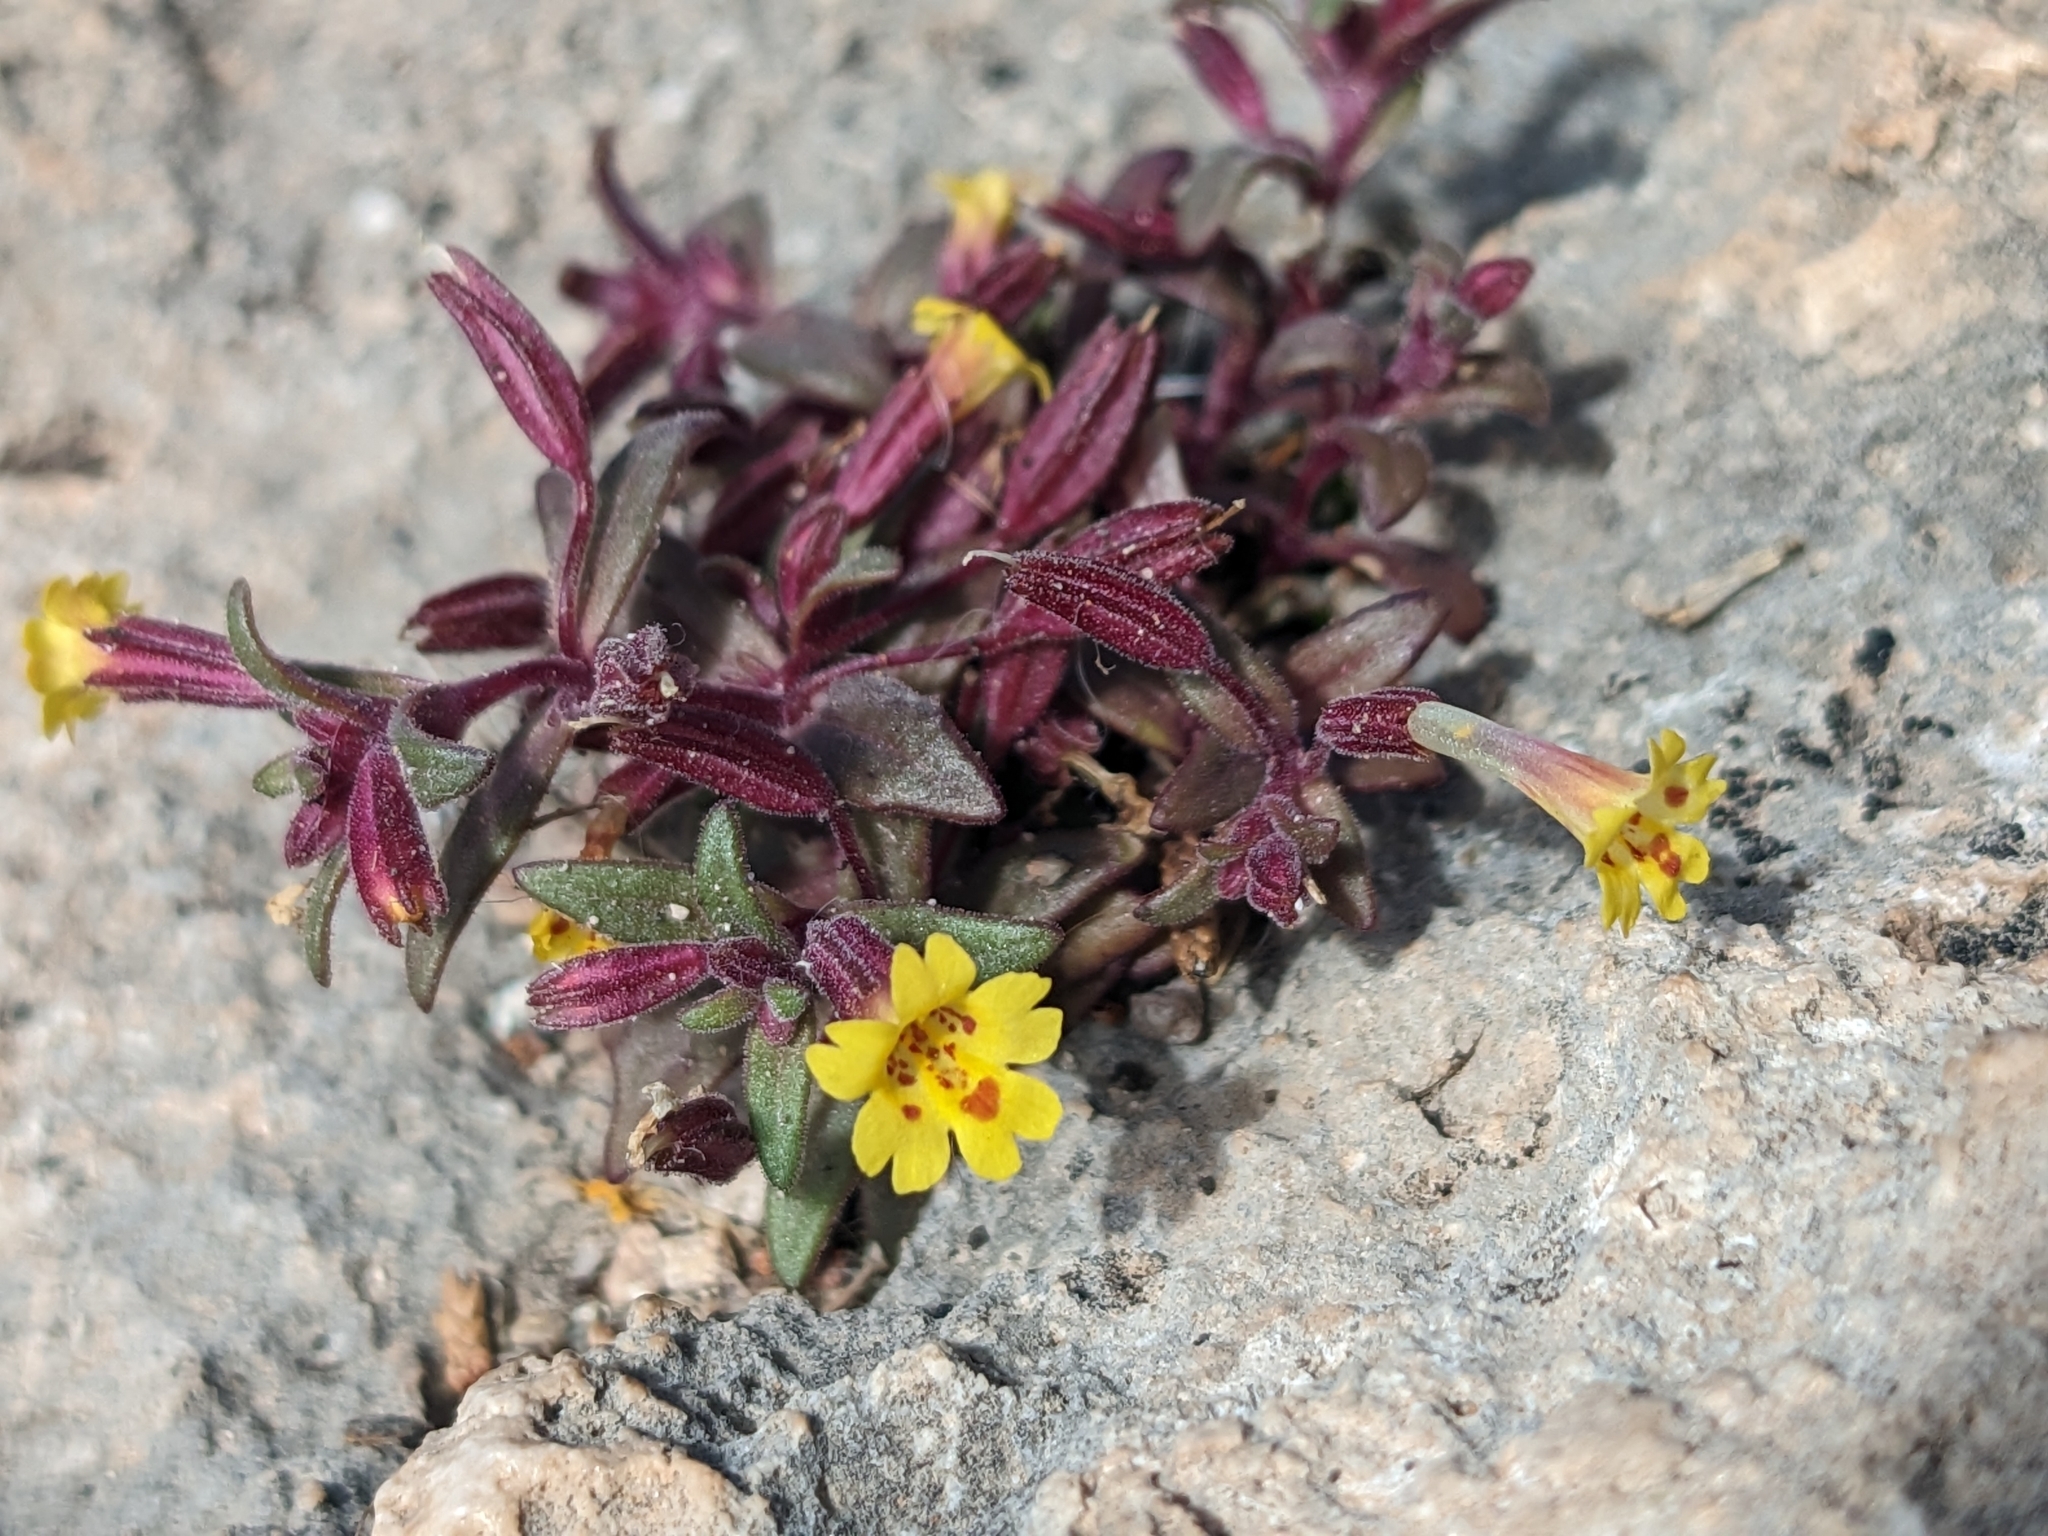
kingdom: Plantae
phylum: Tracheophyta
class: Magnoliopsida
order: Lamiales
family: Phrymaceae
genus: Erythranthe
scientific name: Erythranthe rubella
